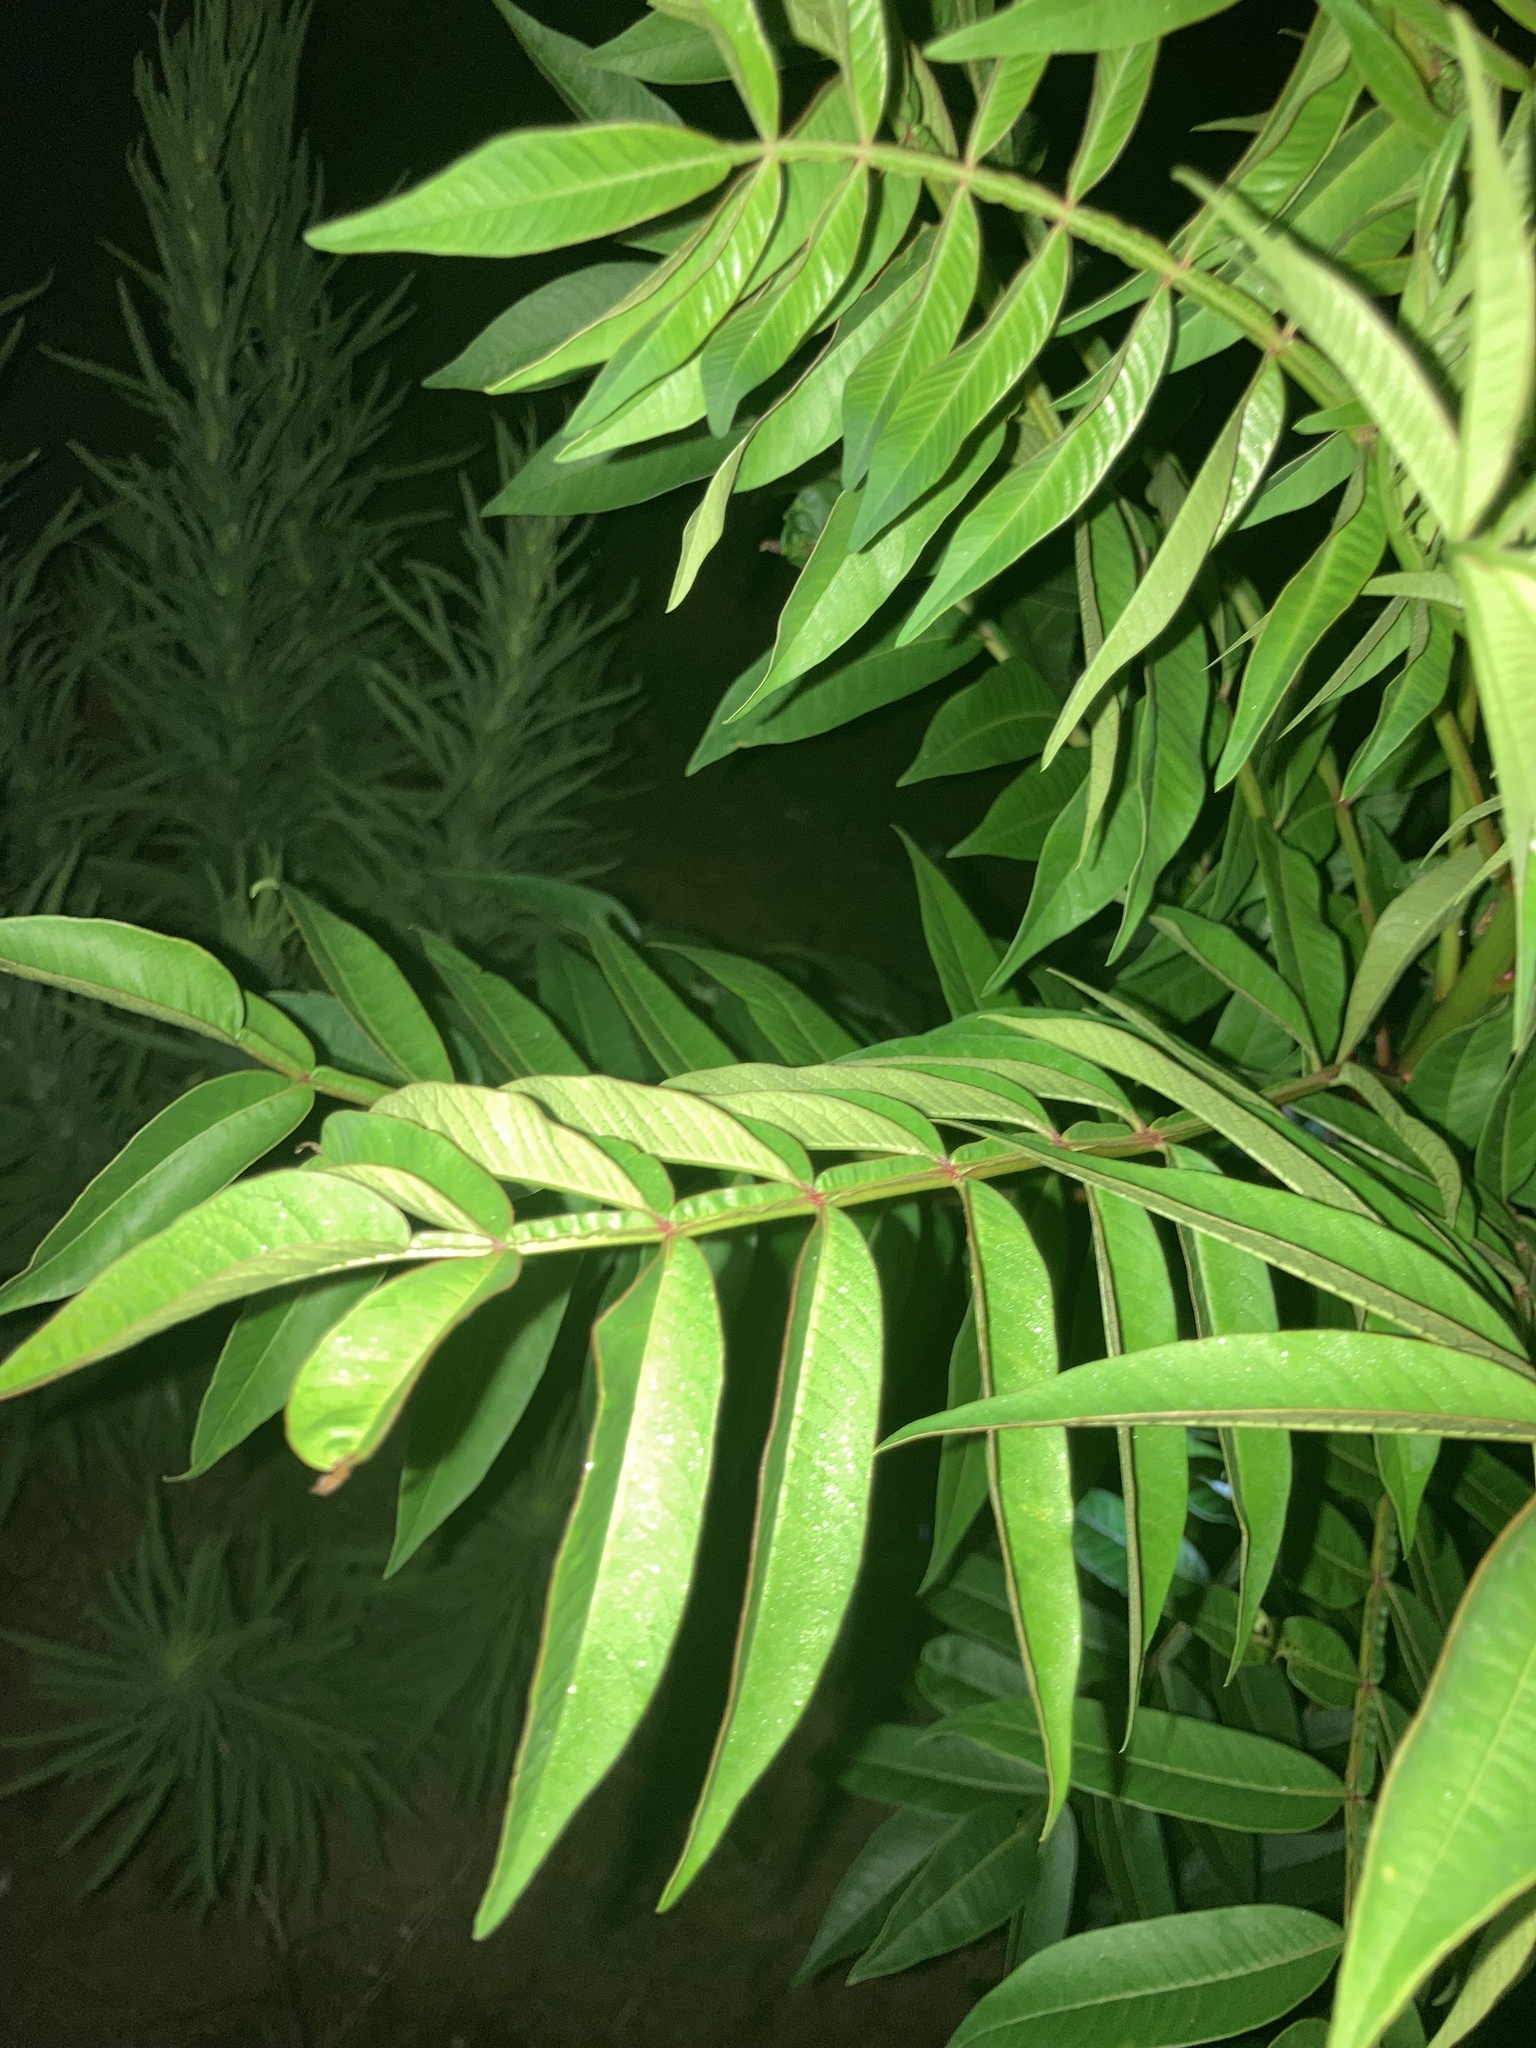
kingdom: Plantae
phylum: Tracheophyta
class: Magnoliopsida
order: Sapindales
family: Anacardiaceae
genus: Rhus
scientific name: Rhus copallina
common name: Shining sumac
